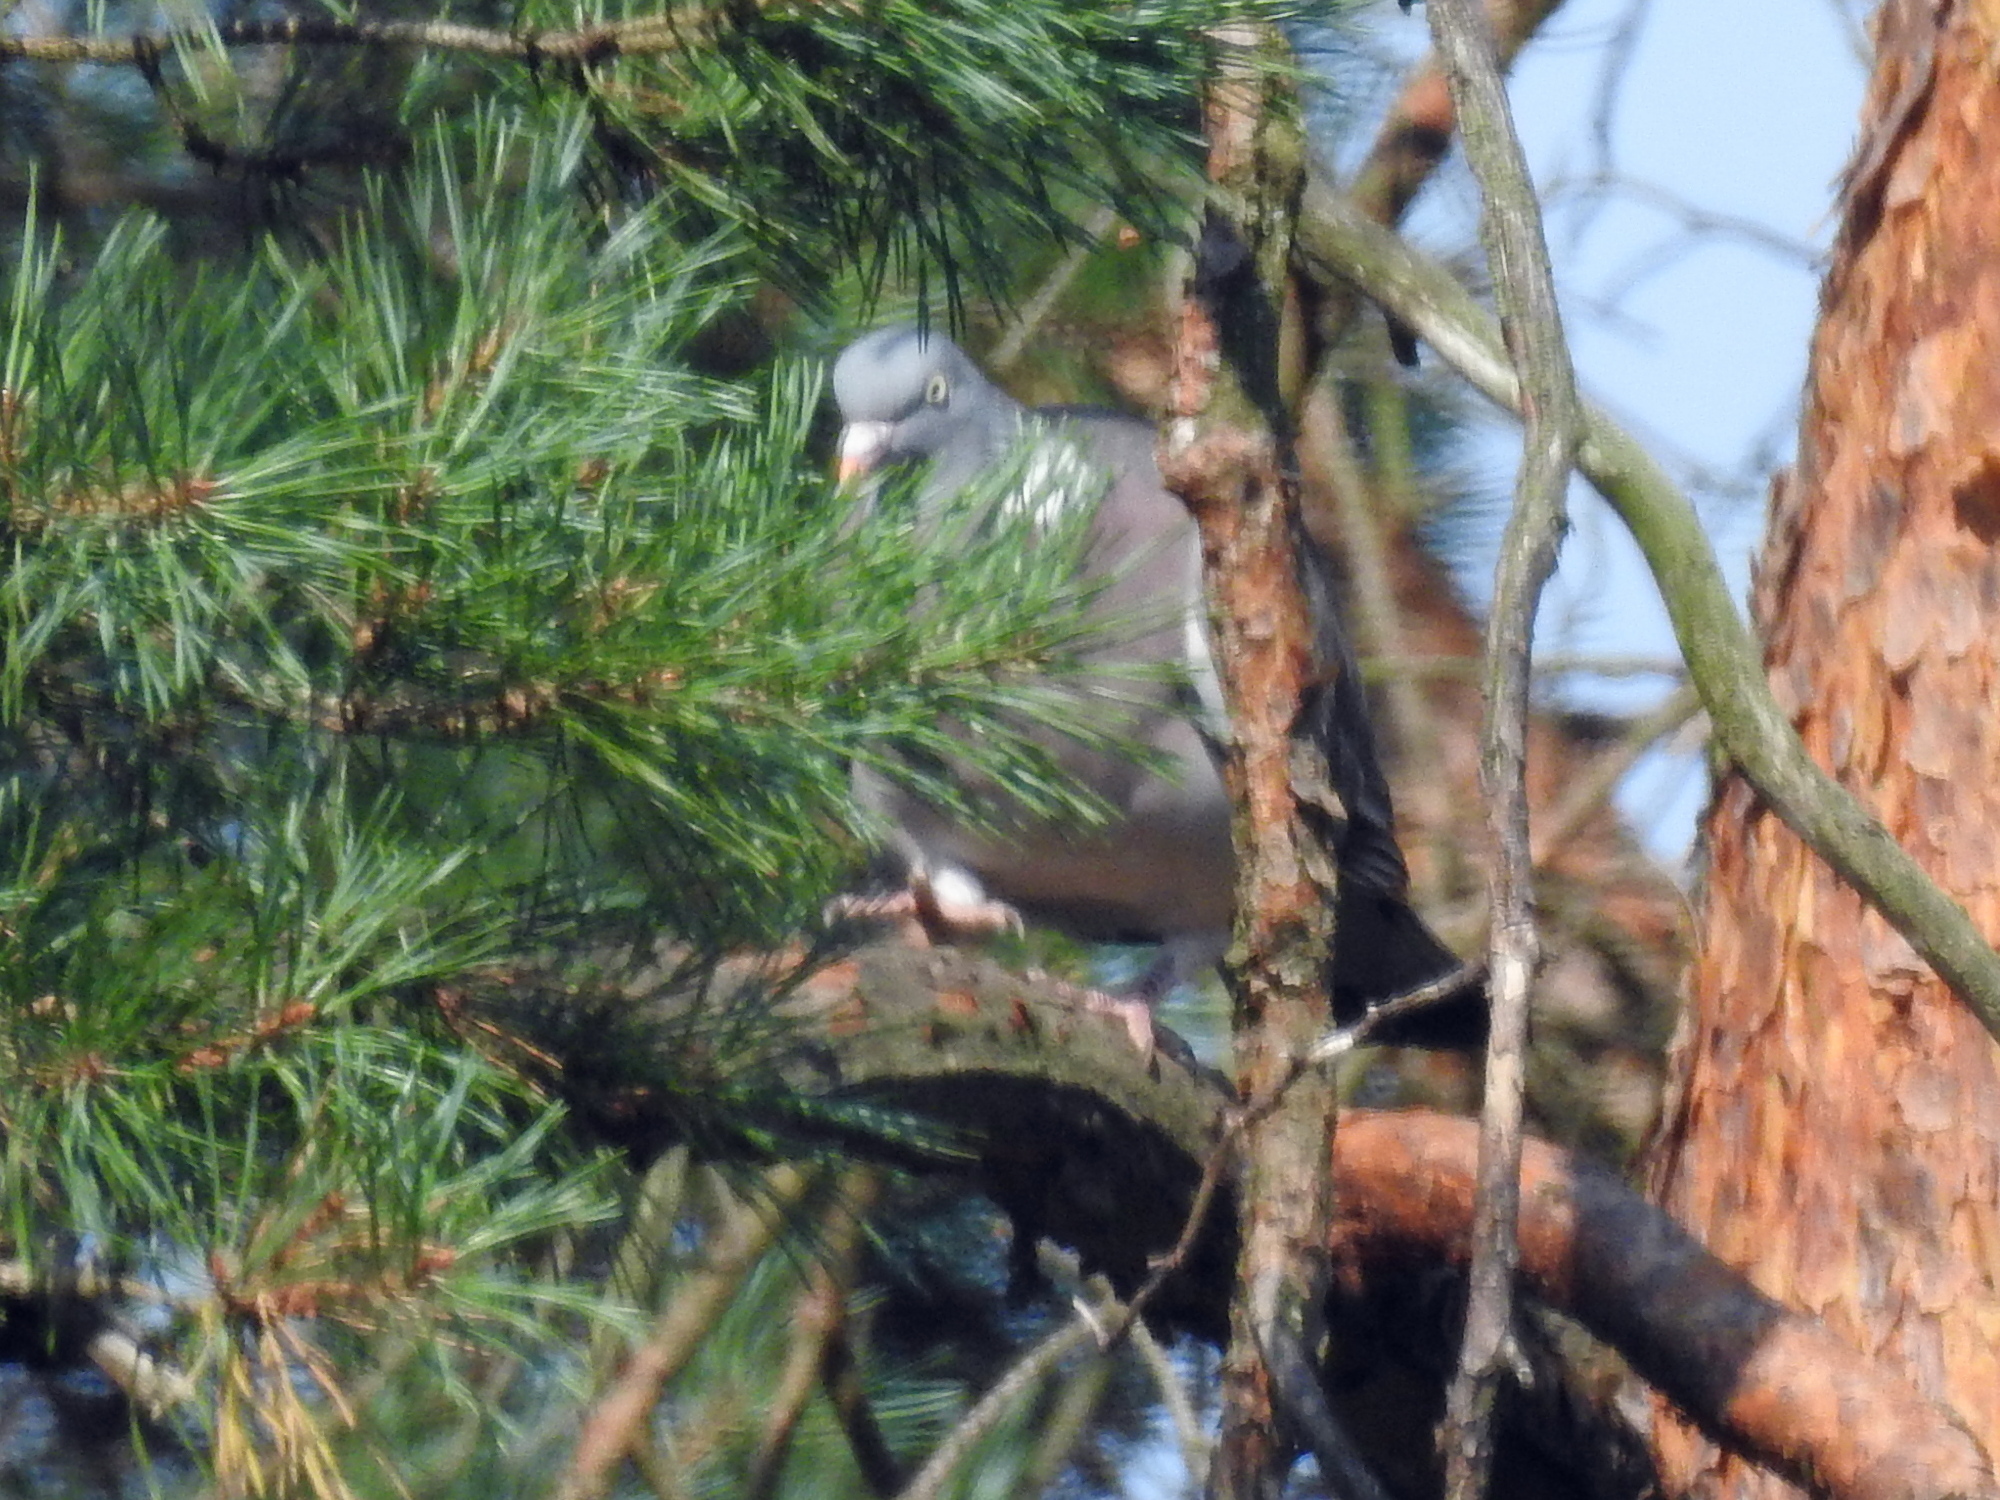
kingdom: Animalia
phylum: Chordata
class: Aves
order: Columbiformes
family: Columbidae
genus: Columba
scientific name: Columba palumbus
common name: Common wood pigeon
